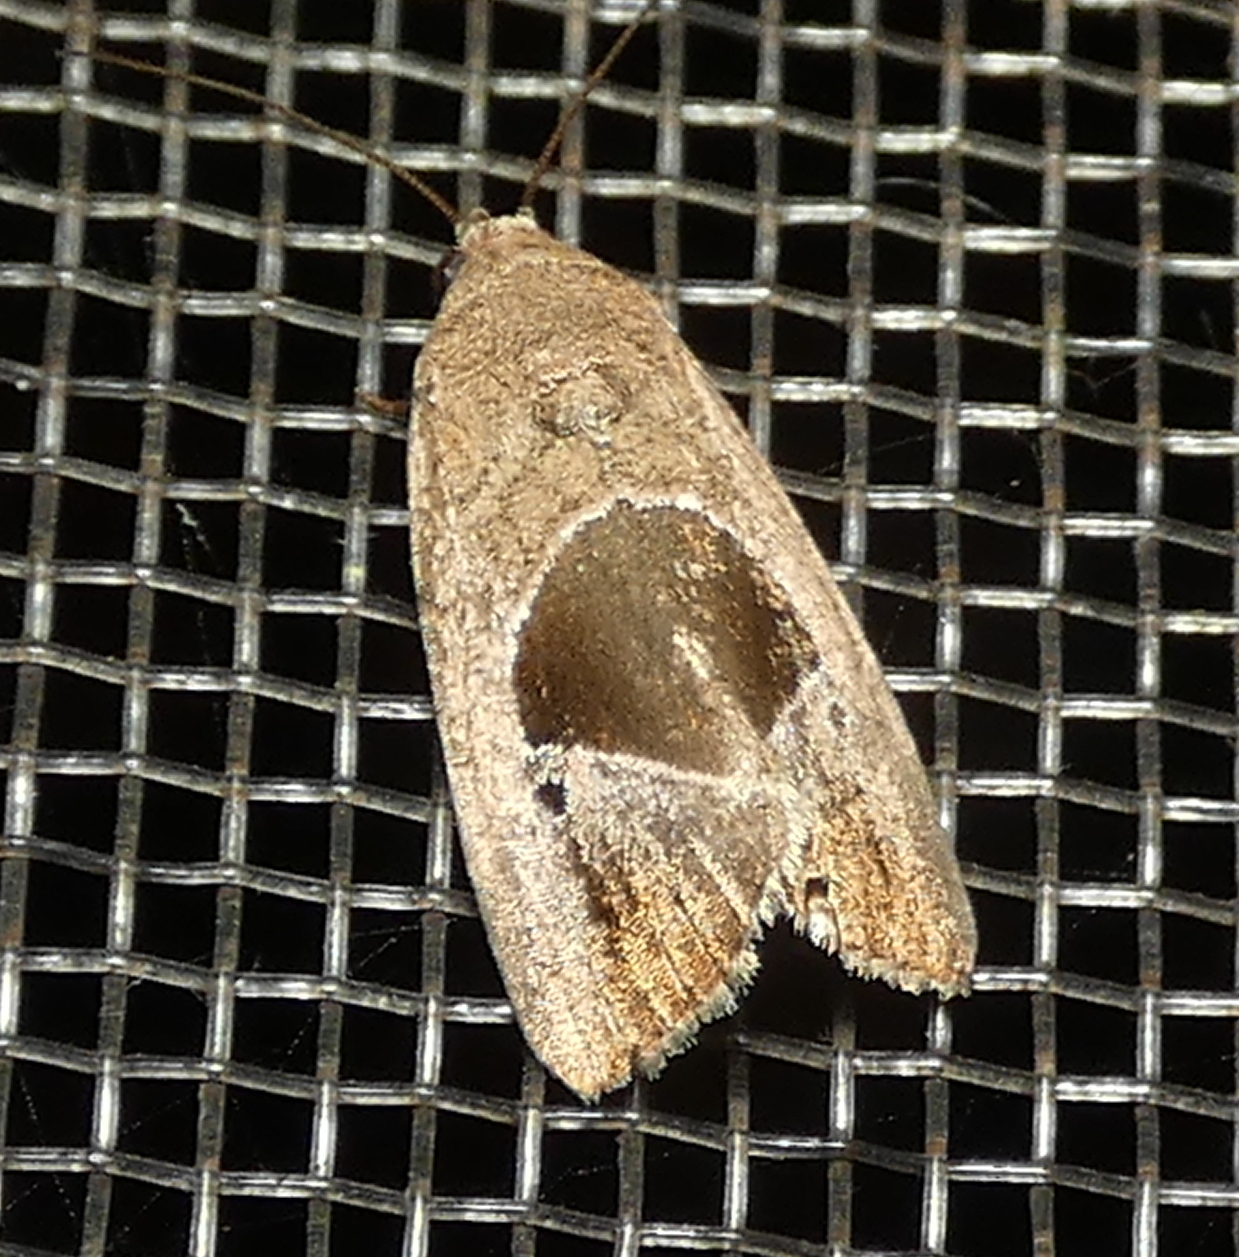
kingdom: Animalia
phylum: Arthropoda
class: Insecta
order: Lepidoptera
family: Noctuidae
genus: Elaphria
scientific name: Elaphria deltoides
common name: Cutworm moth
